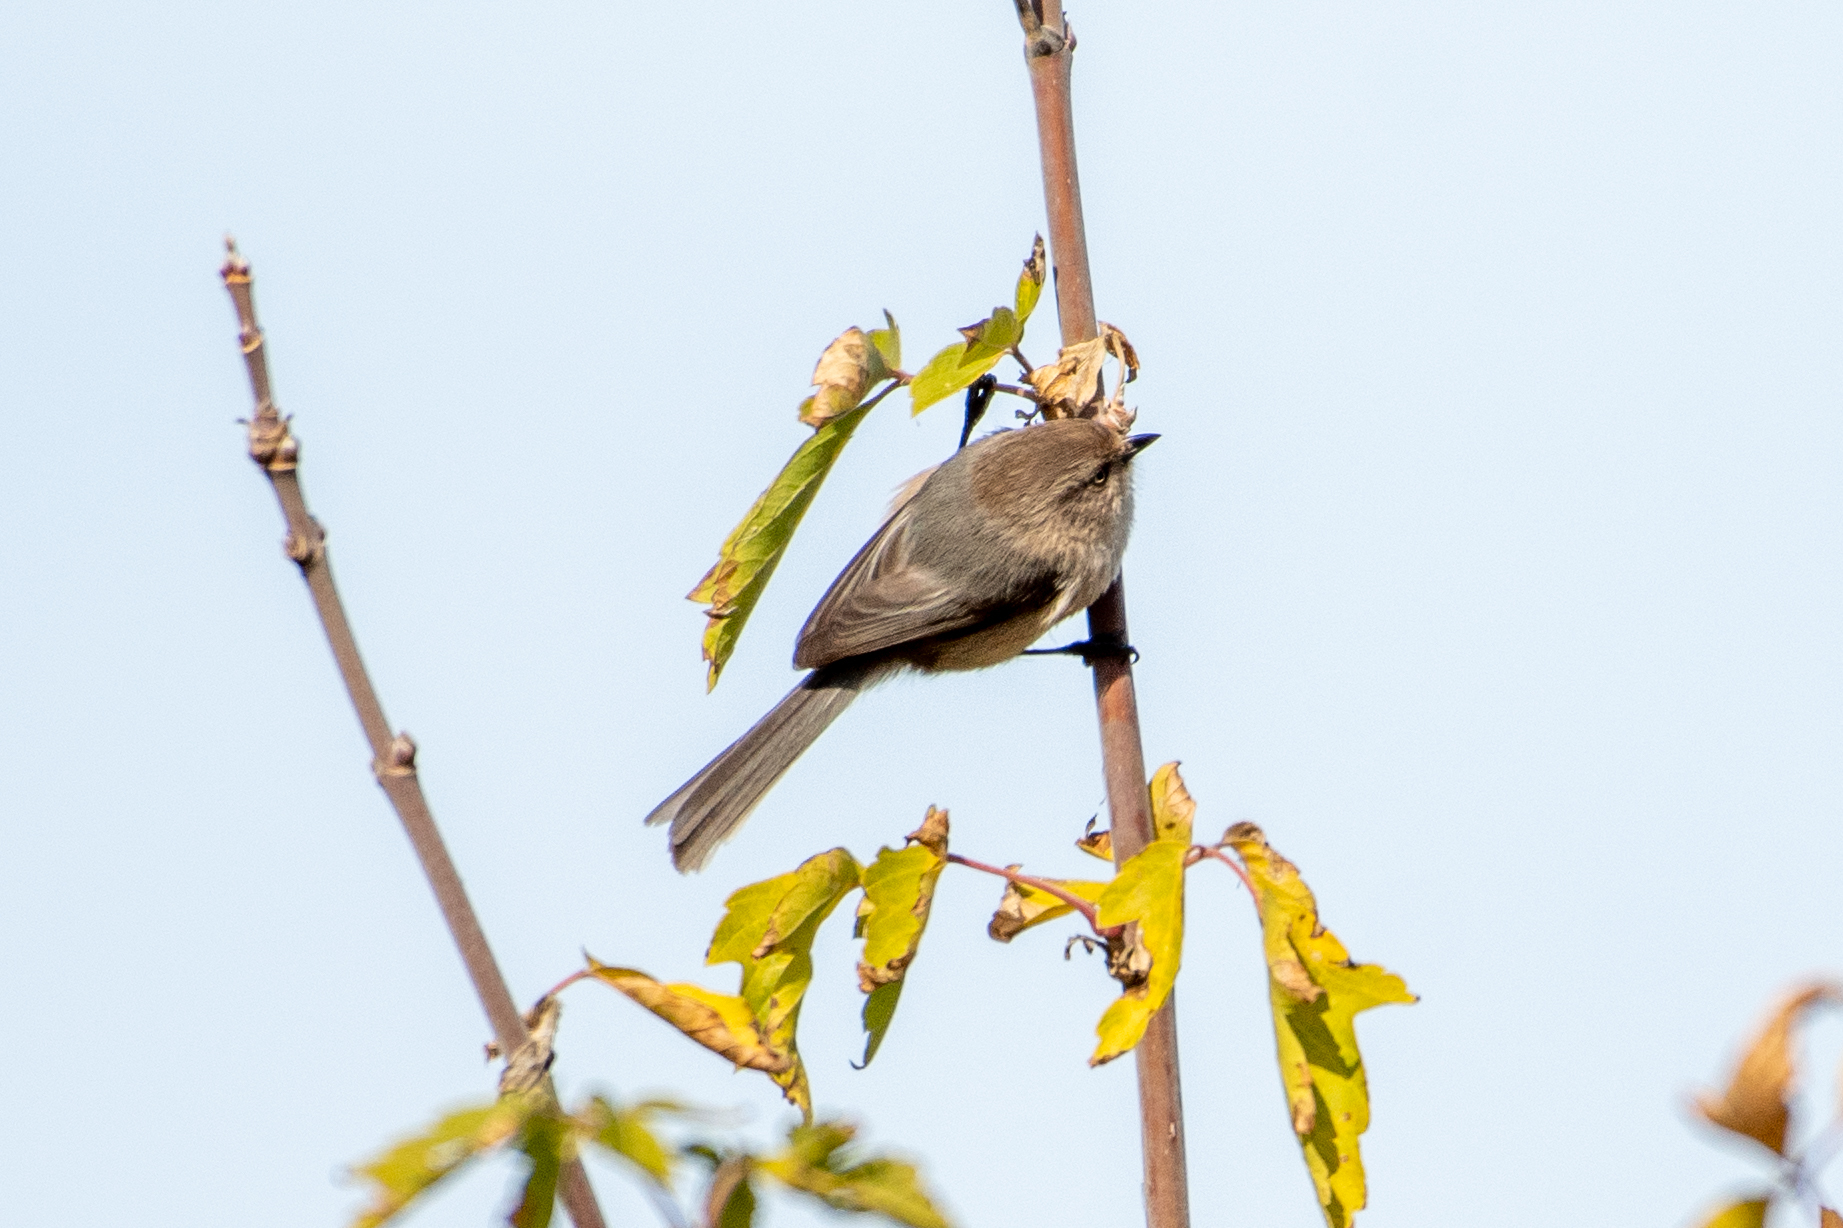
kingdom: Animalia
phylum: Chordata
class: Aves
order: Passeriformes
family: Aegithalidae
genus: Psaltriparus
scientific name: Psaltriparus minimus
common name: American bushtit
